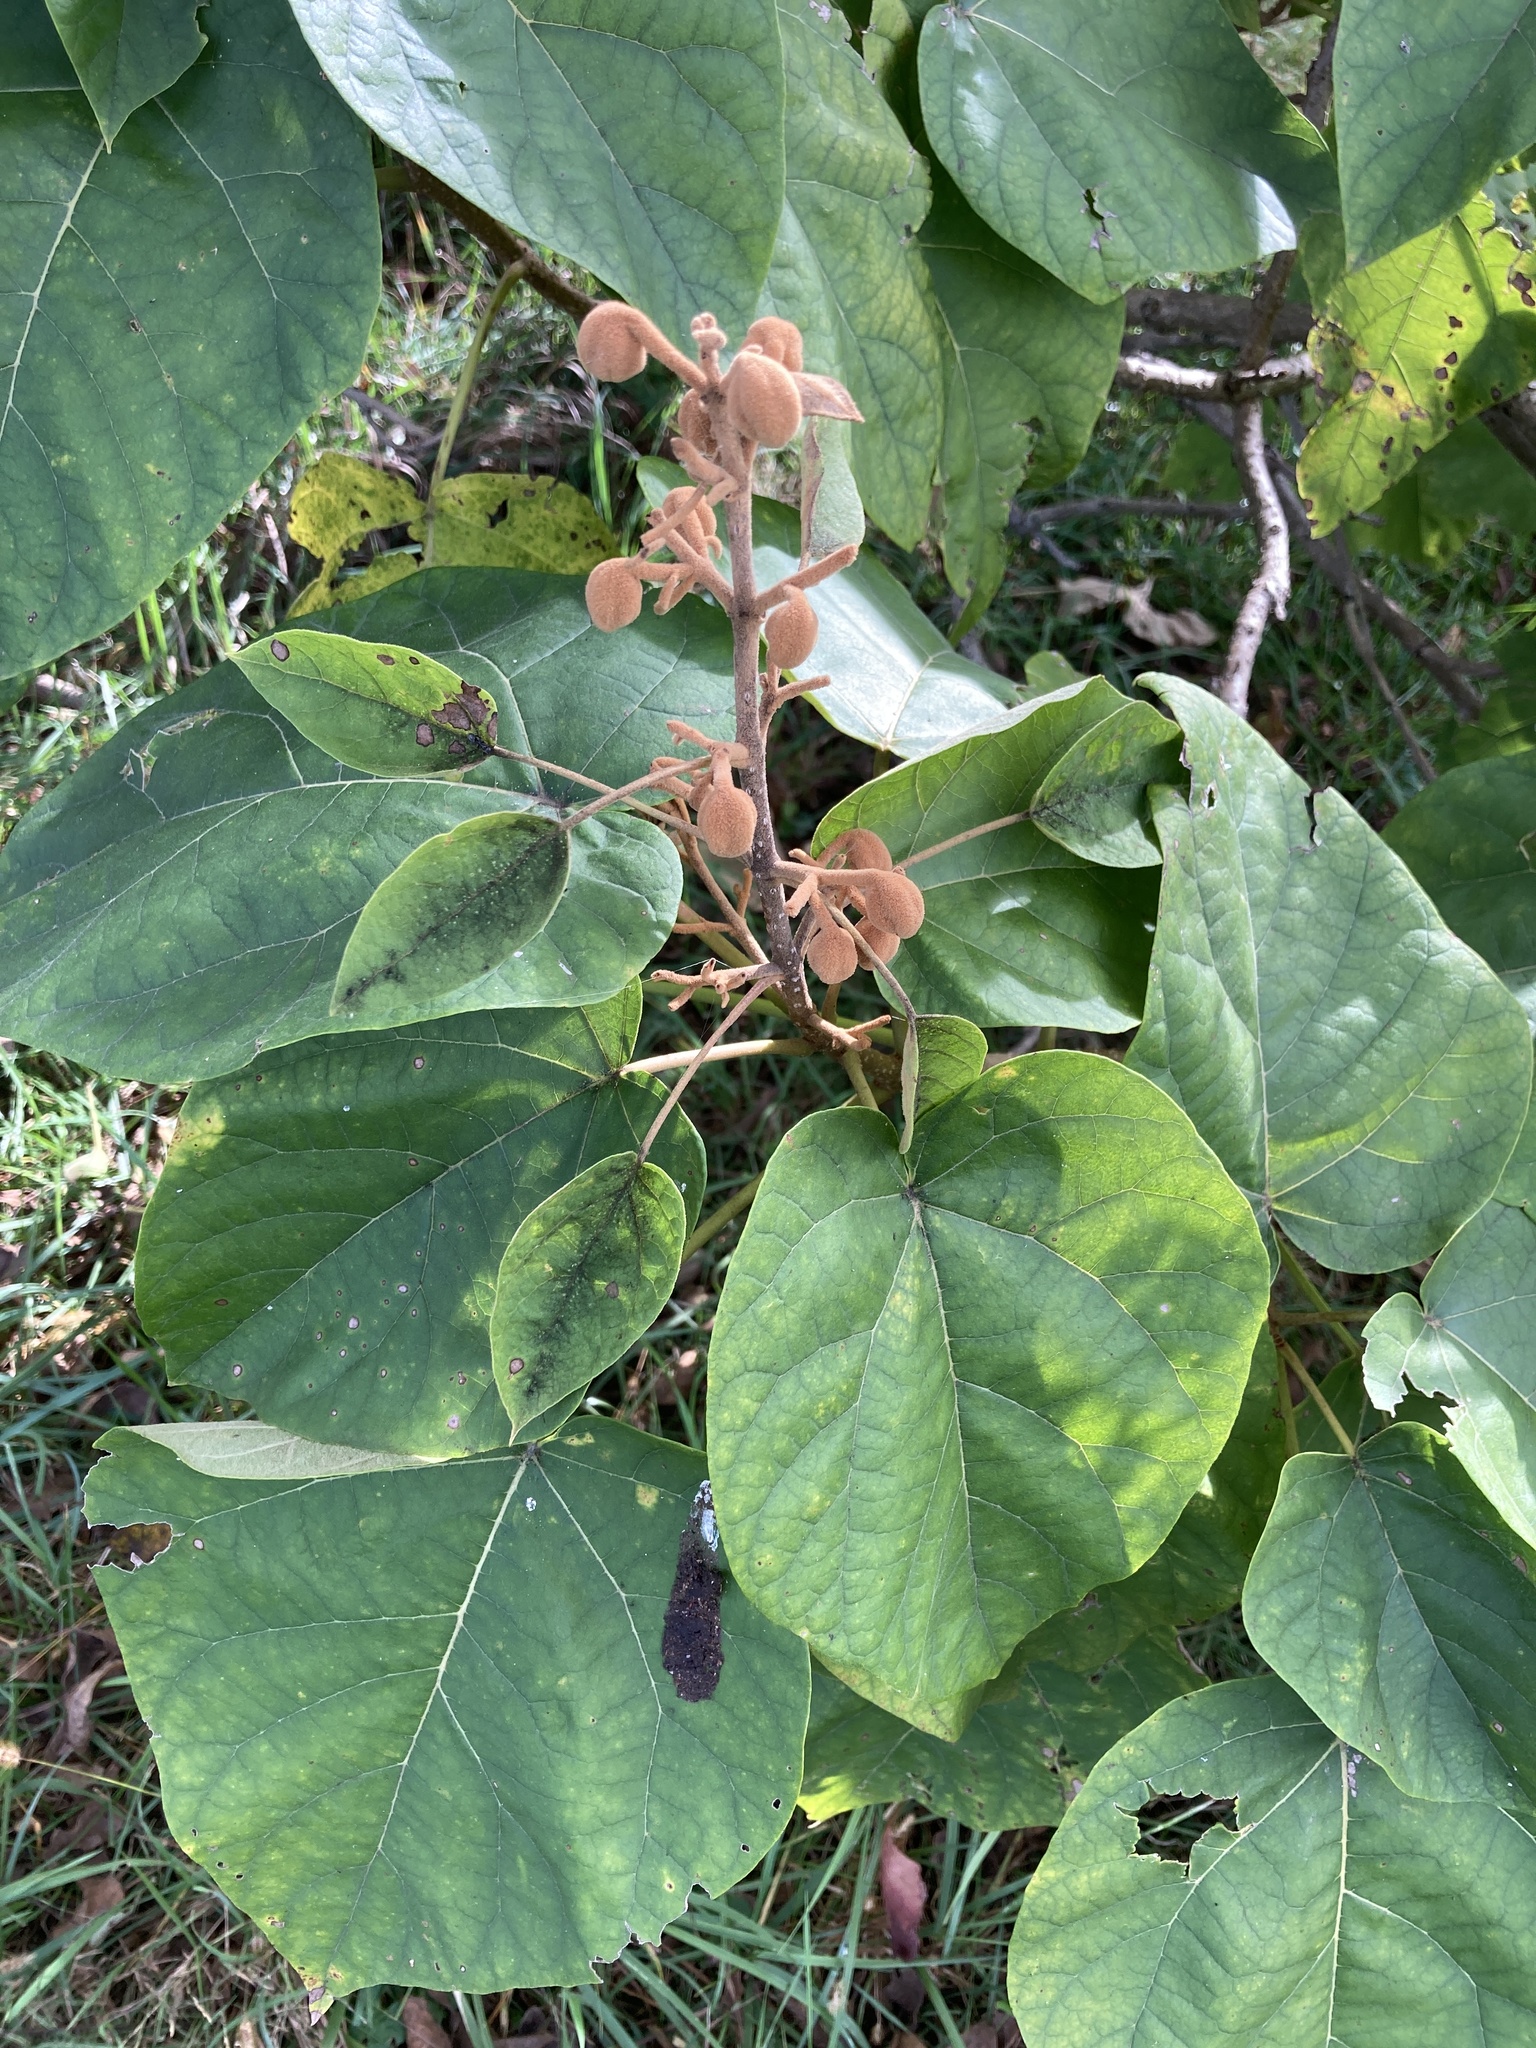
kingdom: Plantae
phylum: Tracheophyta
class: Magnoliopsida
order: Lamiales
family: Paulowniaceae
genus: Paulownia
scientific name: Paulownia tomentosa
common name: Foxglove-tree
